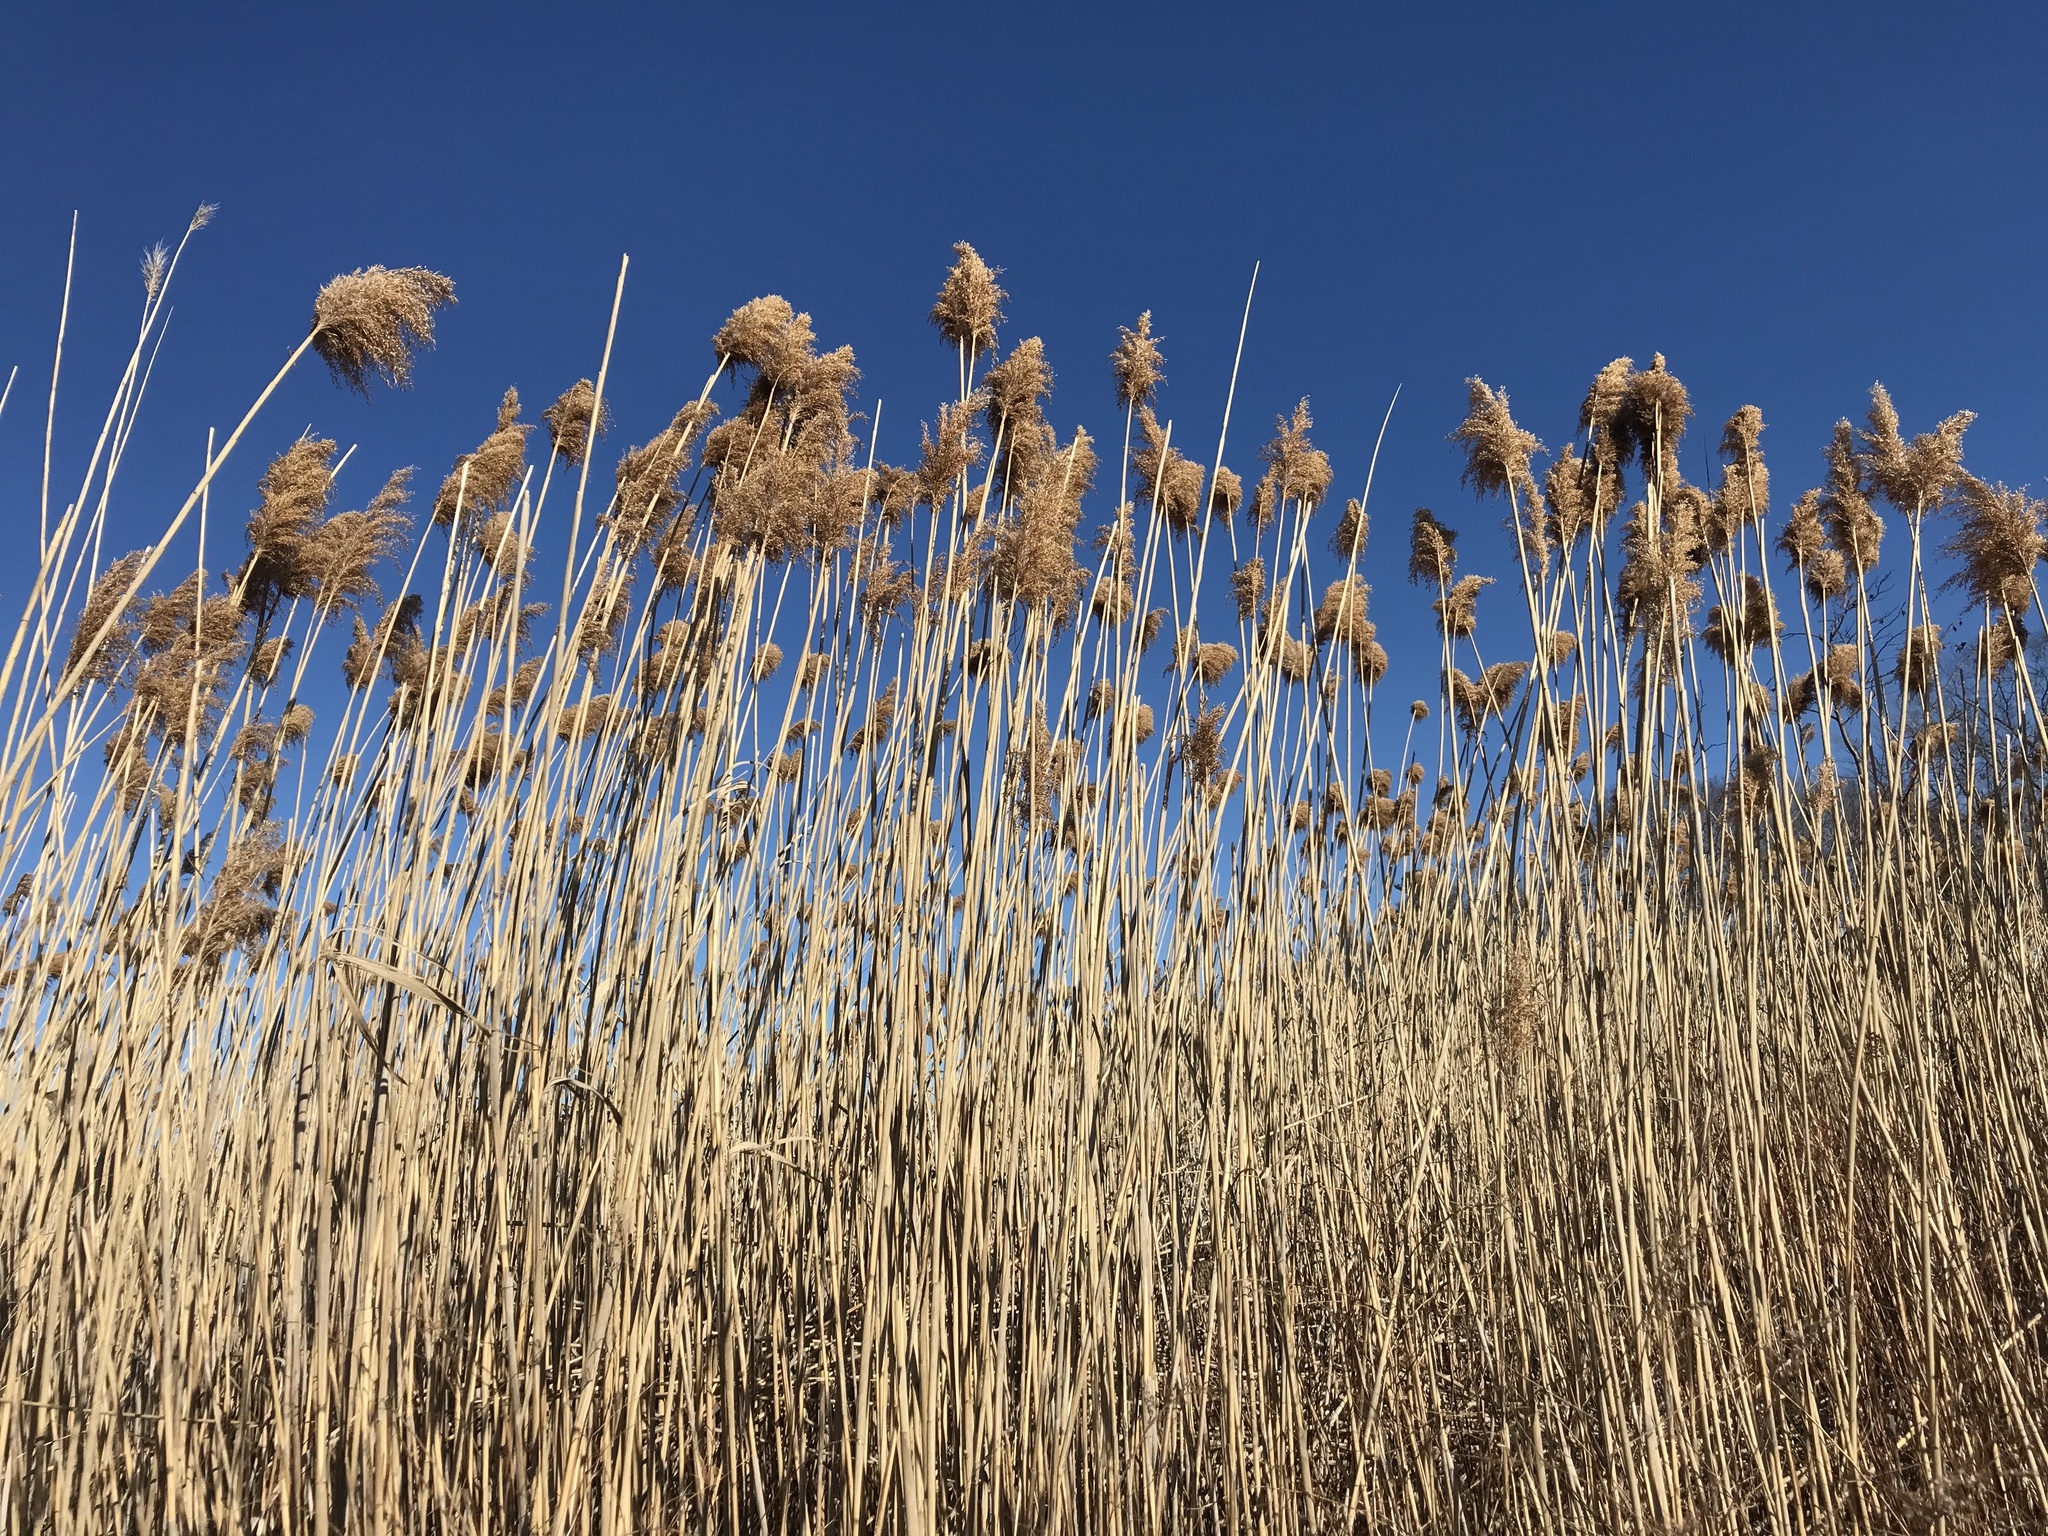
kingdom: Plantae
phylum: Tracheophyta
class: Liliopsida
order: Poales
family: Poaceae
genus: Phragmites
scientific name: Phragmites australis
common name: Common reed
